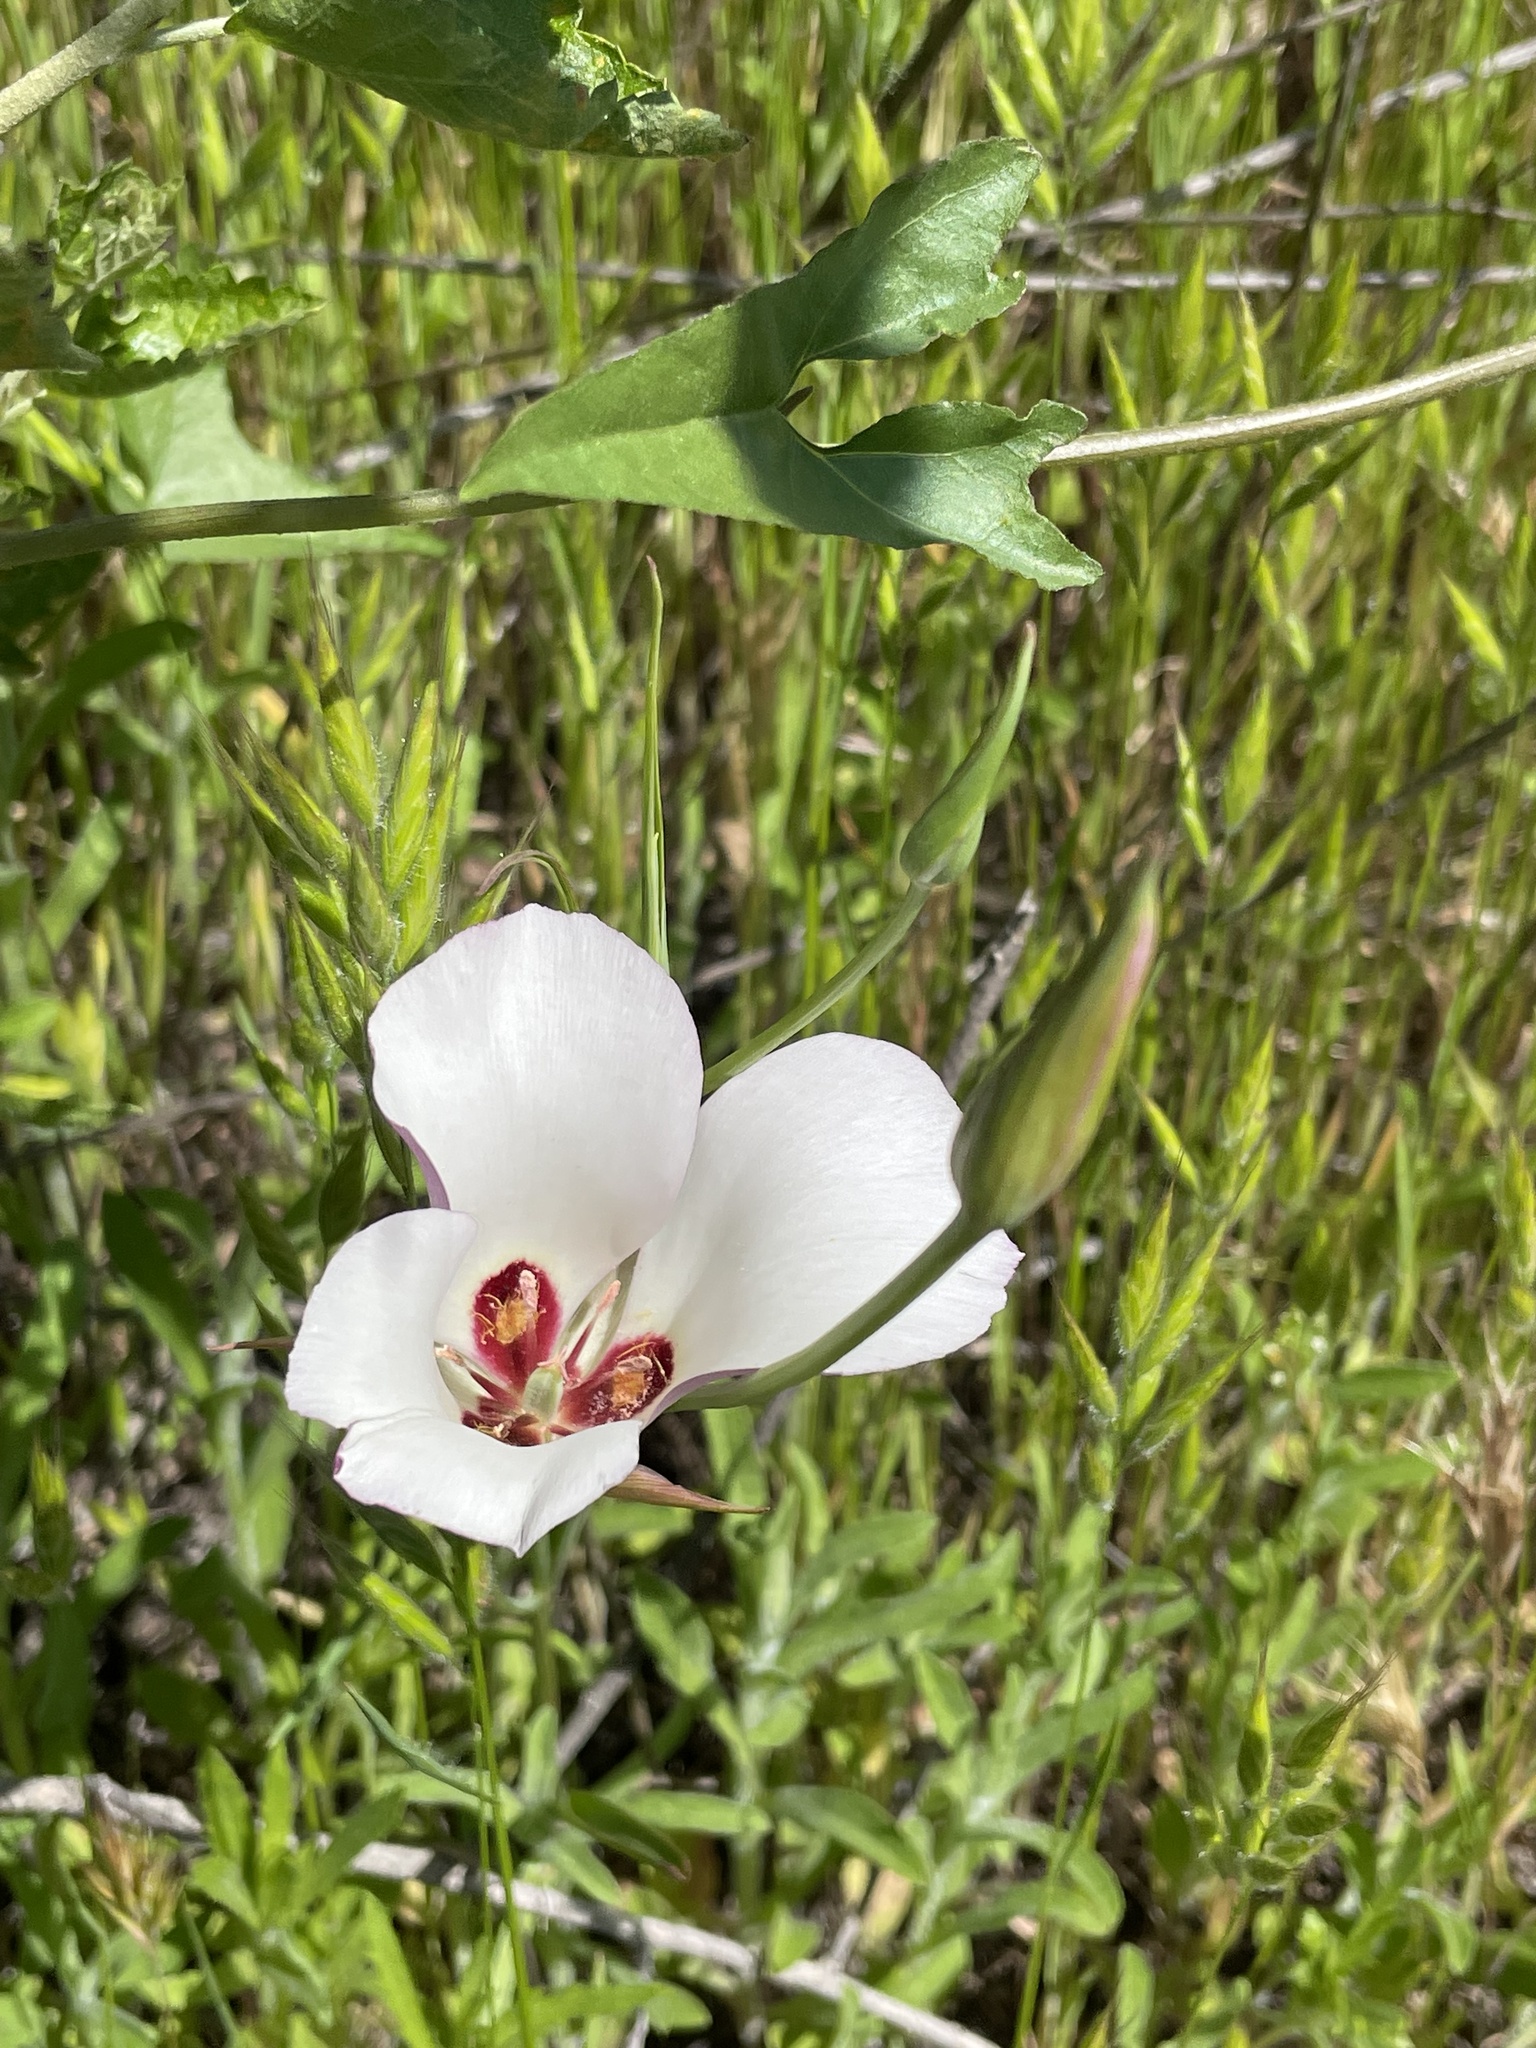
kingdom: Plantae
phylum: Tracheophyta
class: Liliopsida
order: Liliales
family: Liliaceae
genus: Calochortus
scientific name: Calochortus catalinae
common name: Catalina mariposa-lily
